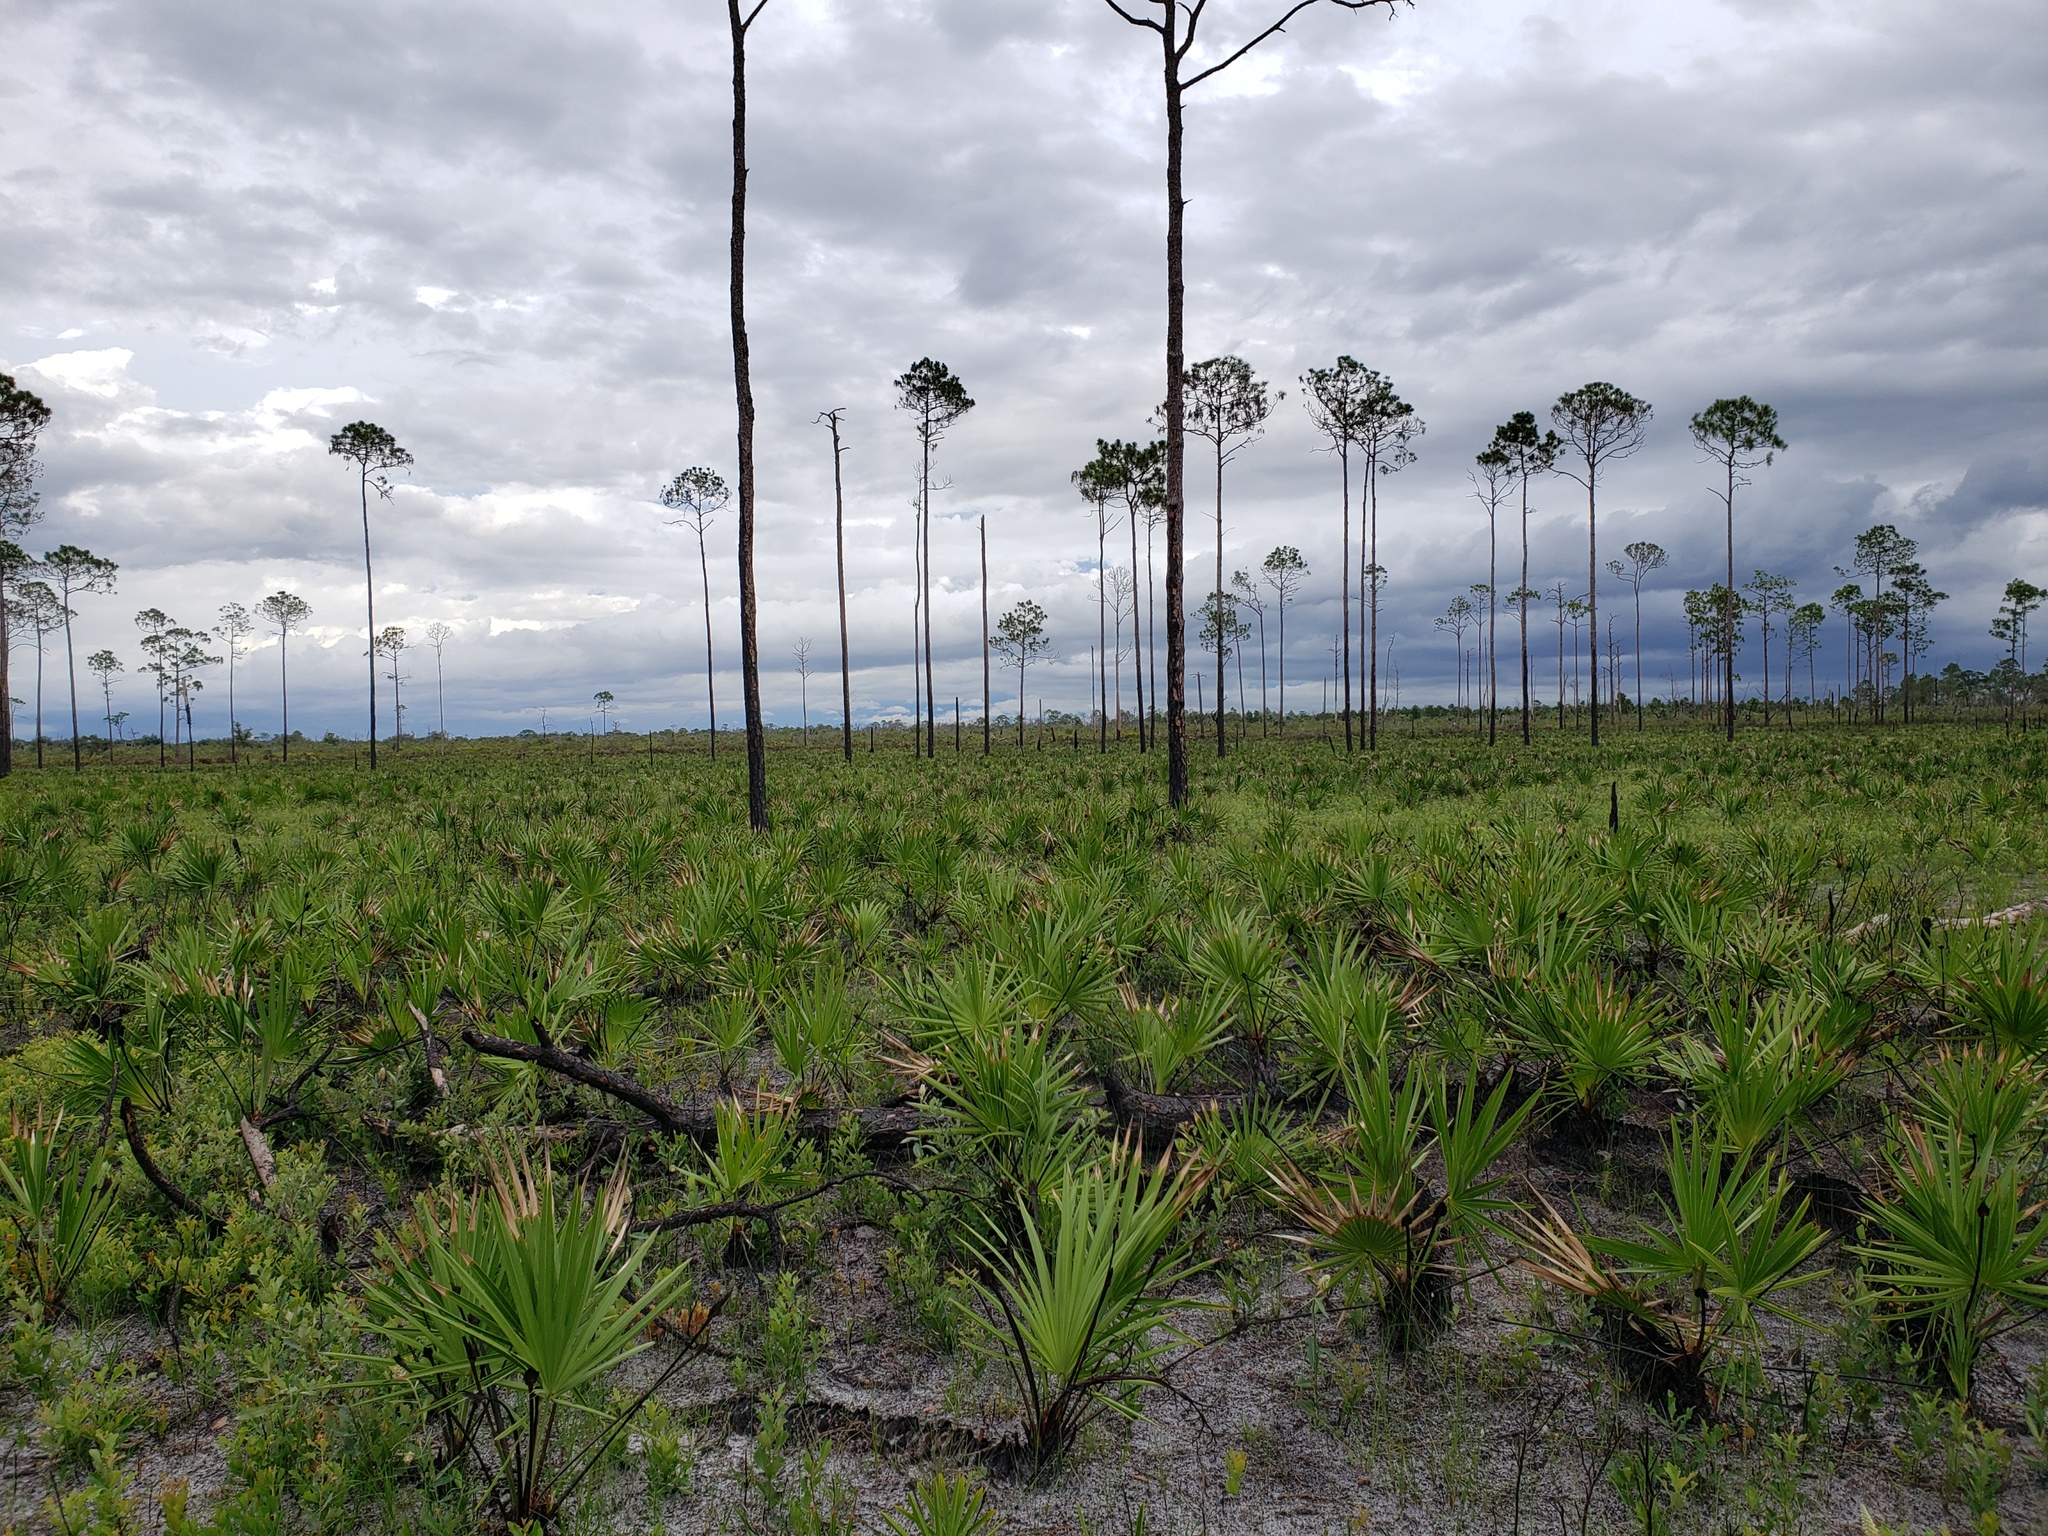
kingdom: Plantae
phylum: Tracheophyta
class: Liliopsida
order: Arecales
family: Arecaceae
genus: Serenoa
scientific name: Serenoa repens
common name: Saw-palmetto
